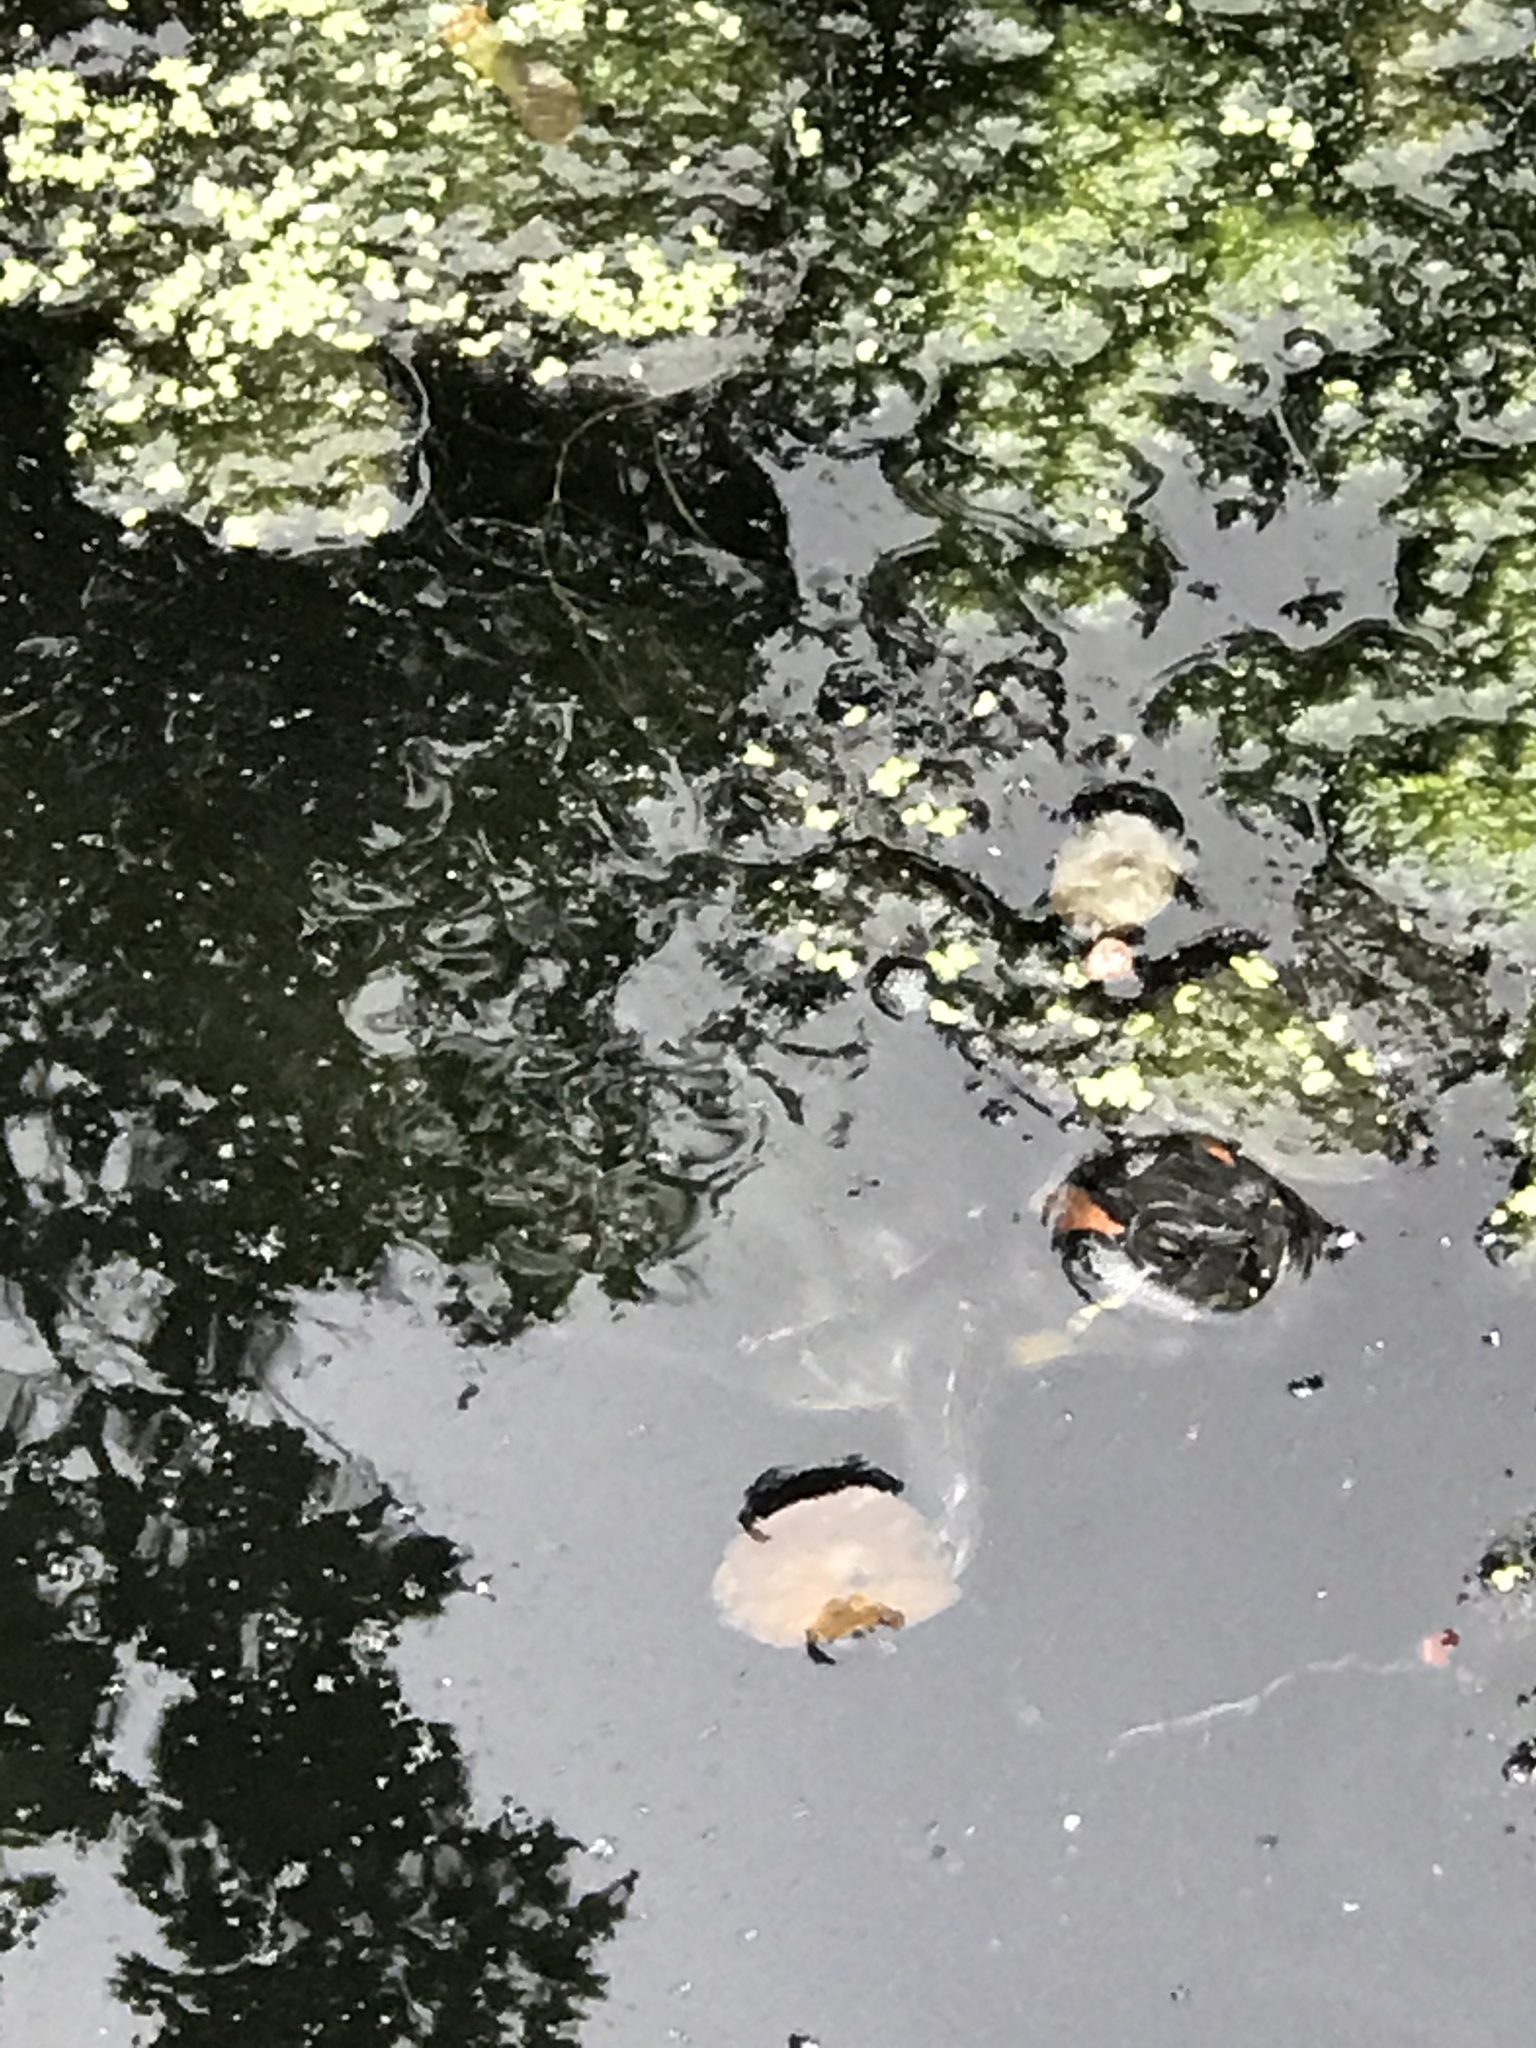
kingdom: Animalia
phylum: Chordata
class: Testudines
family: Emydidae
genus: Trachemys
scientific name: Trachemys scripta
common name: Slider
